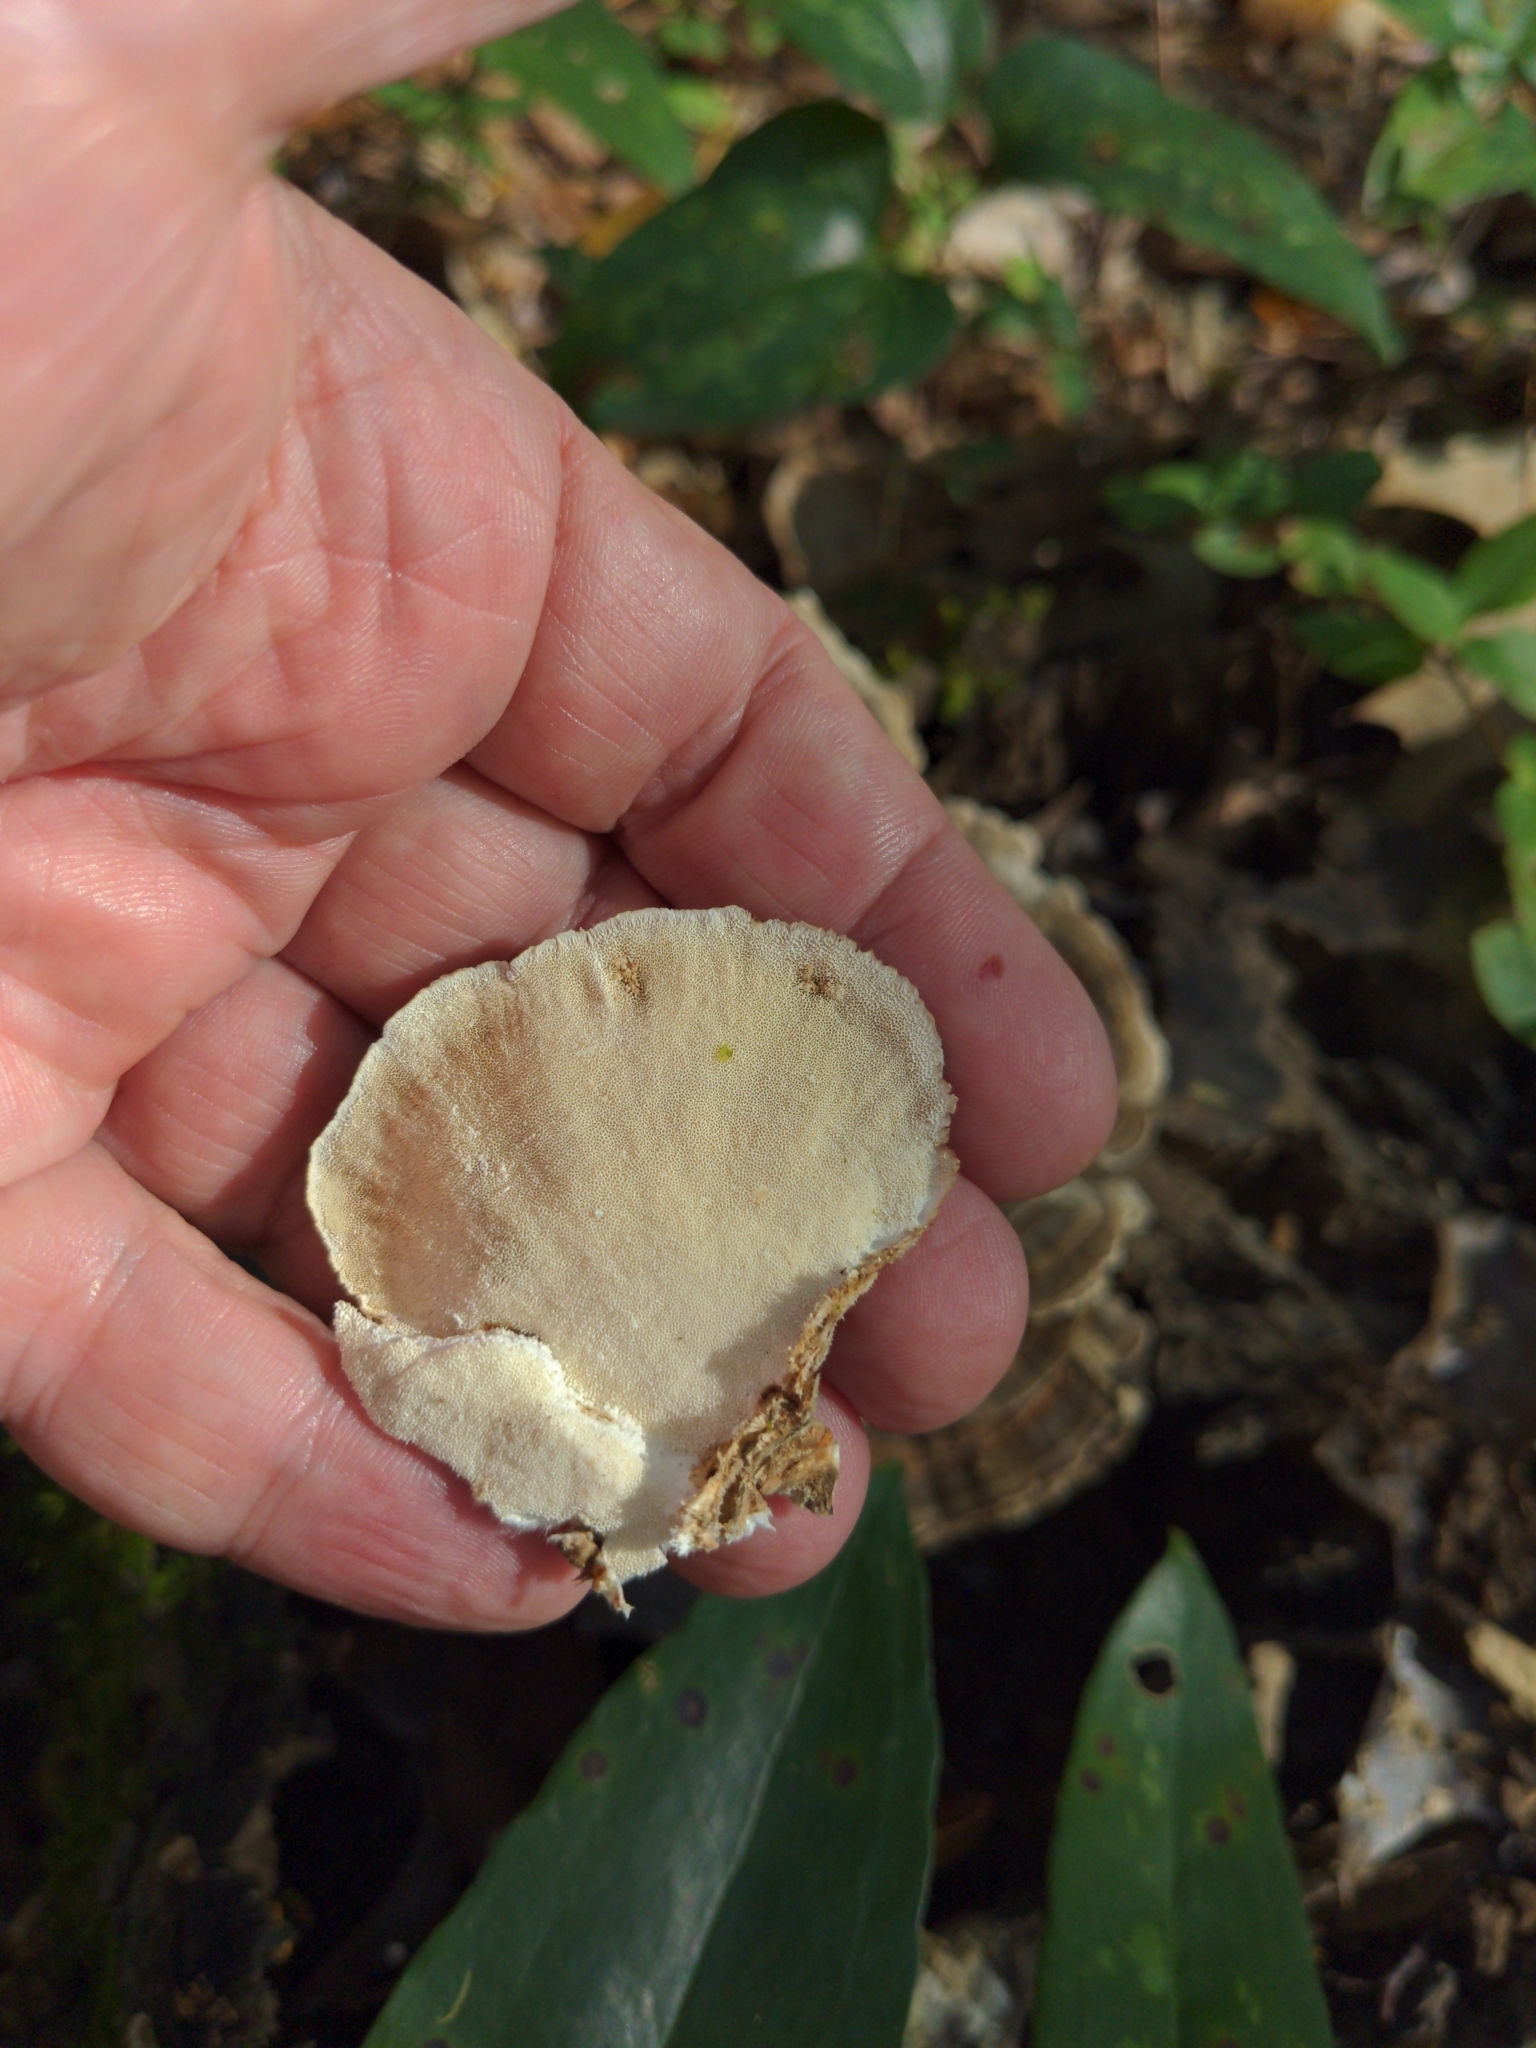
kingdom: Fungi
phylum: Basidiomycota
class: Agaricomycetes
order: Polyporales
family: Polyporaceae
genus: Trametes
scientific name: Trametes versicolor
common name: Turkeytail
